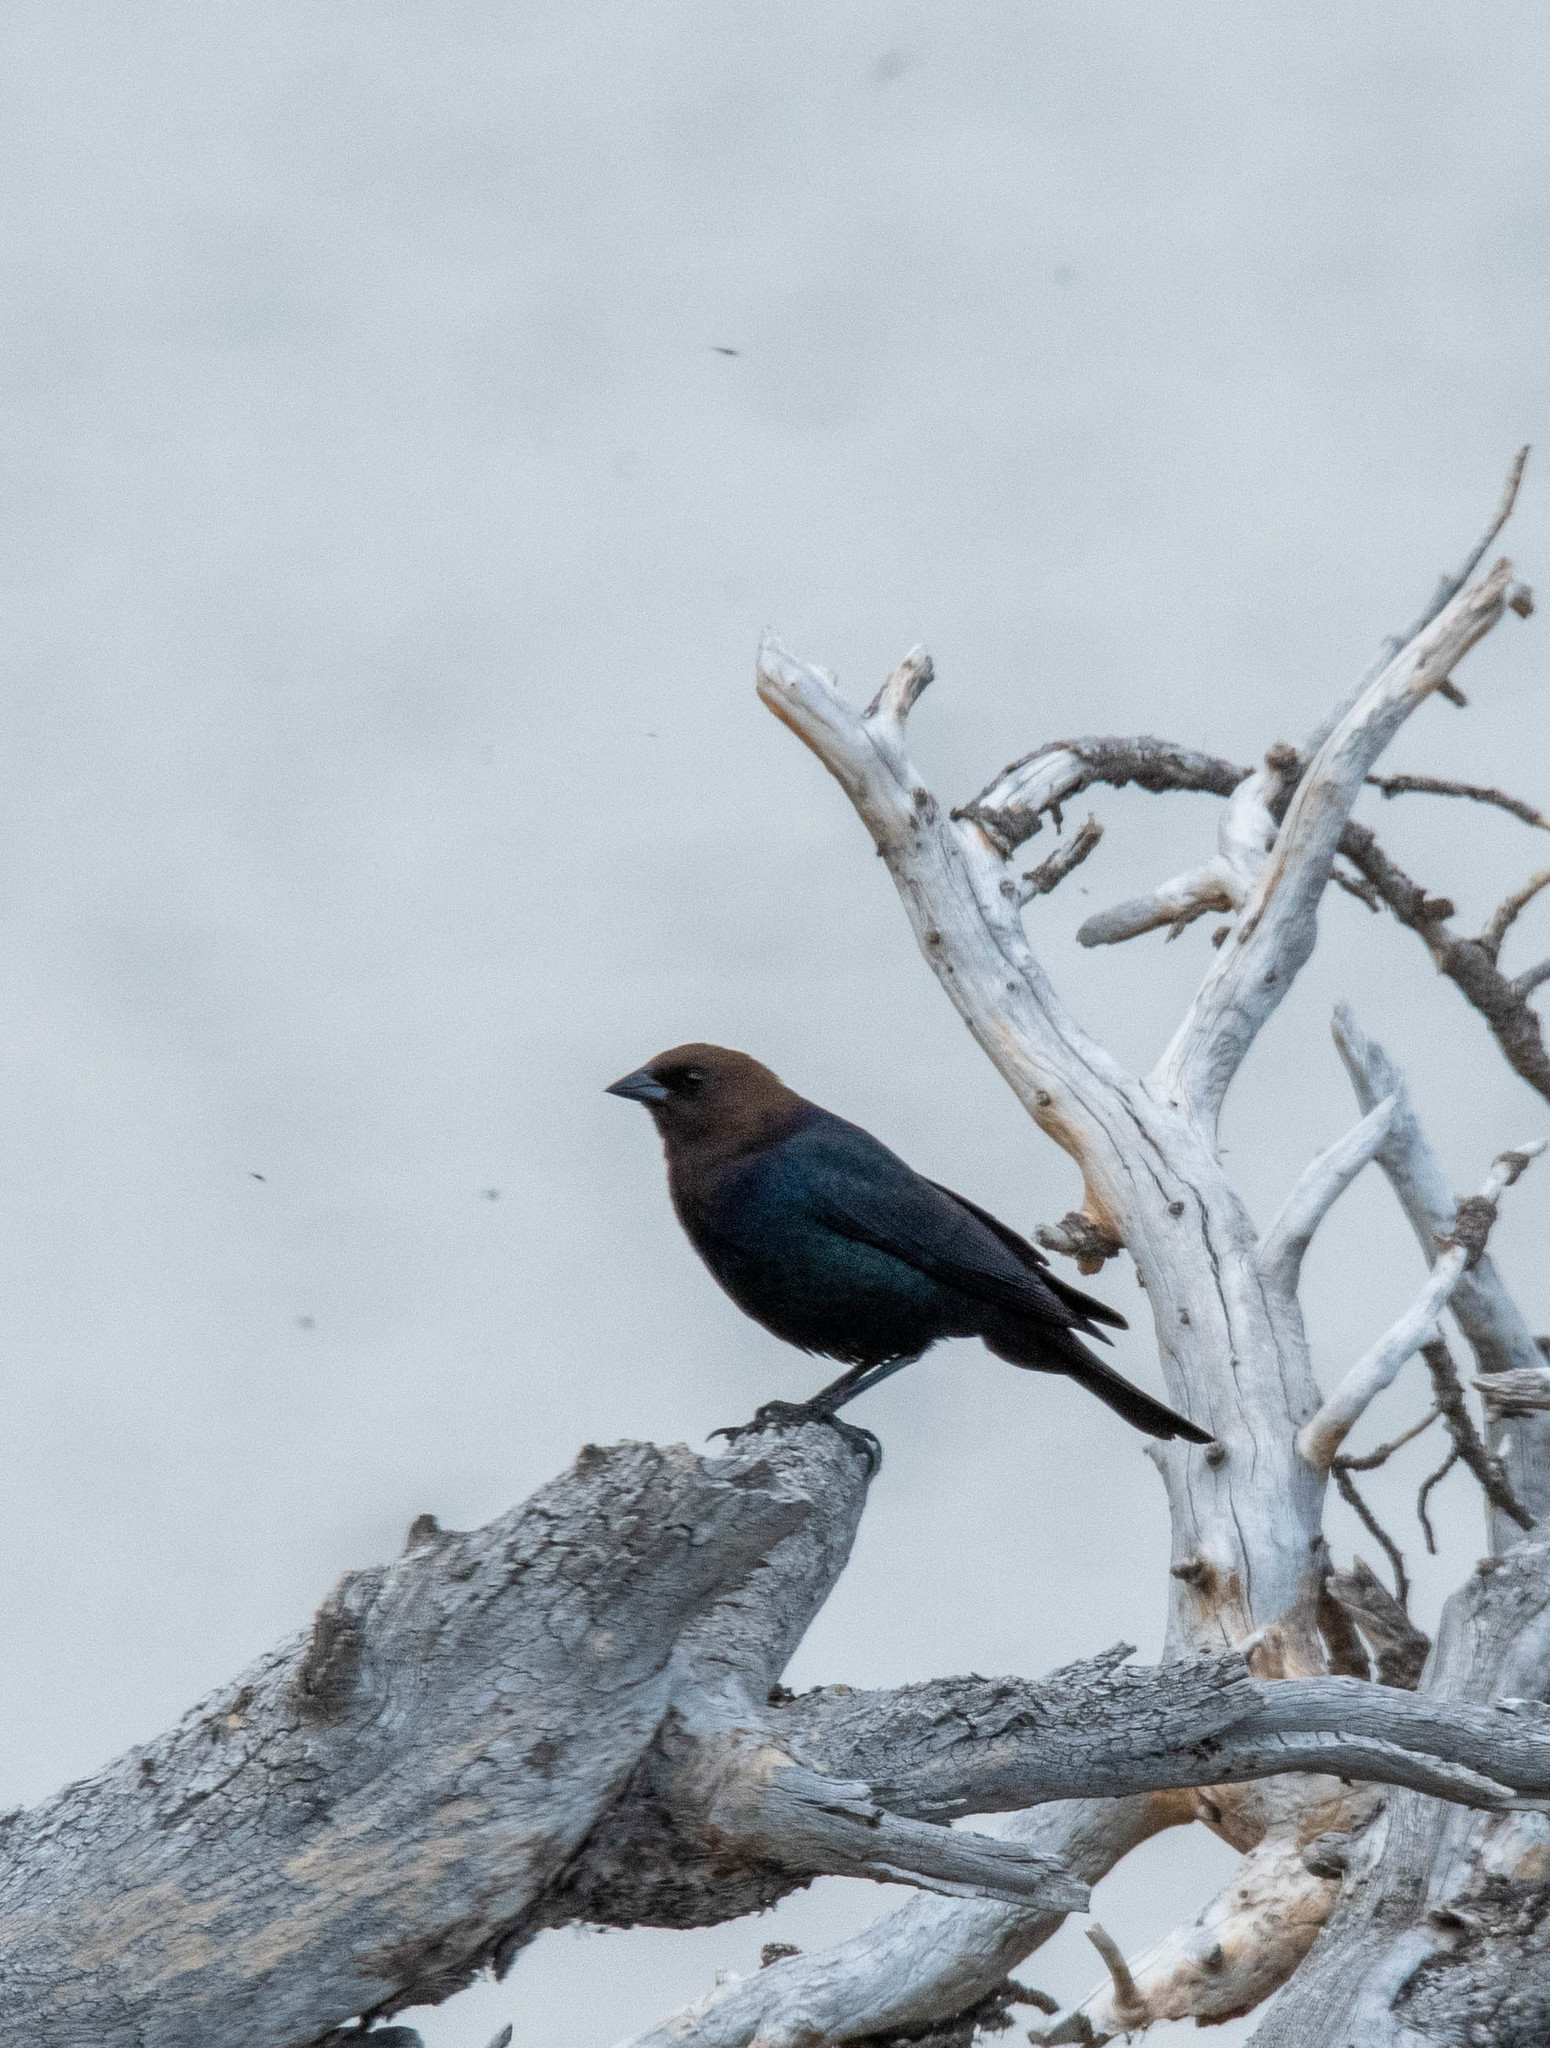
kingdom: Animalia
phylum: Chordata
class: Aves
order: Passeriformes
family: Icteridae
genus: Molothrus
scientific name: Molothrus ater
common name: Brown-headed cowbird
